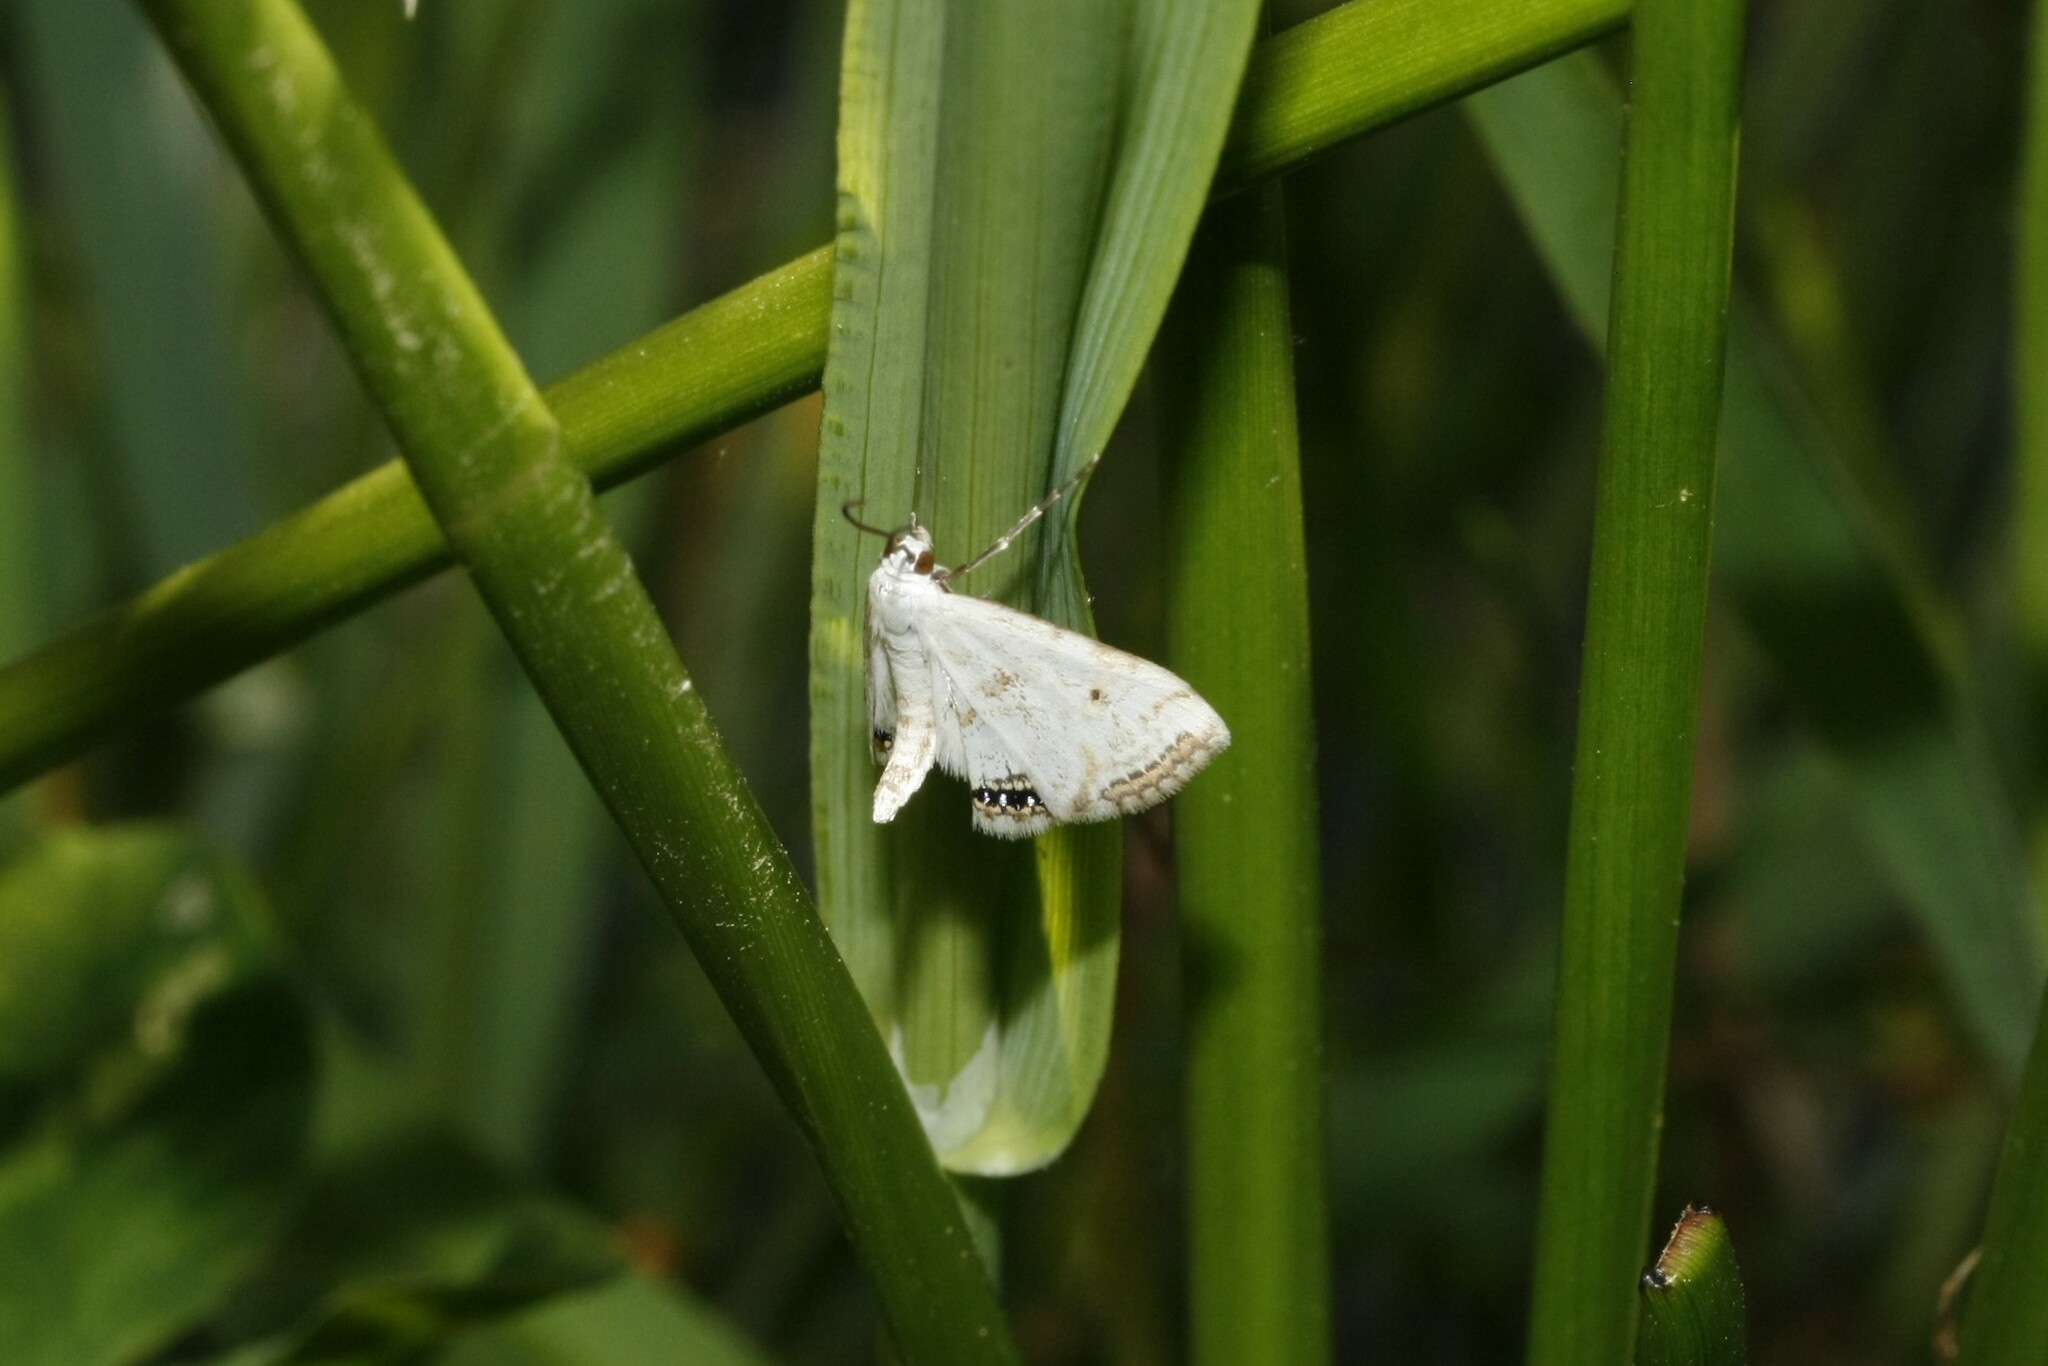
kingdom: Animalia
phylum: Arthropoda
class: Insecta
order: Lepidoptera
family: Crambidae
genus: Cataclysta
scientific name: Cataclysta lemnata
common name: Small china-mark
